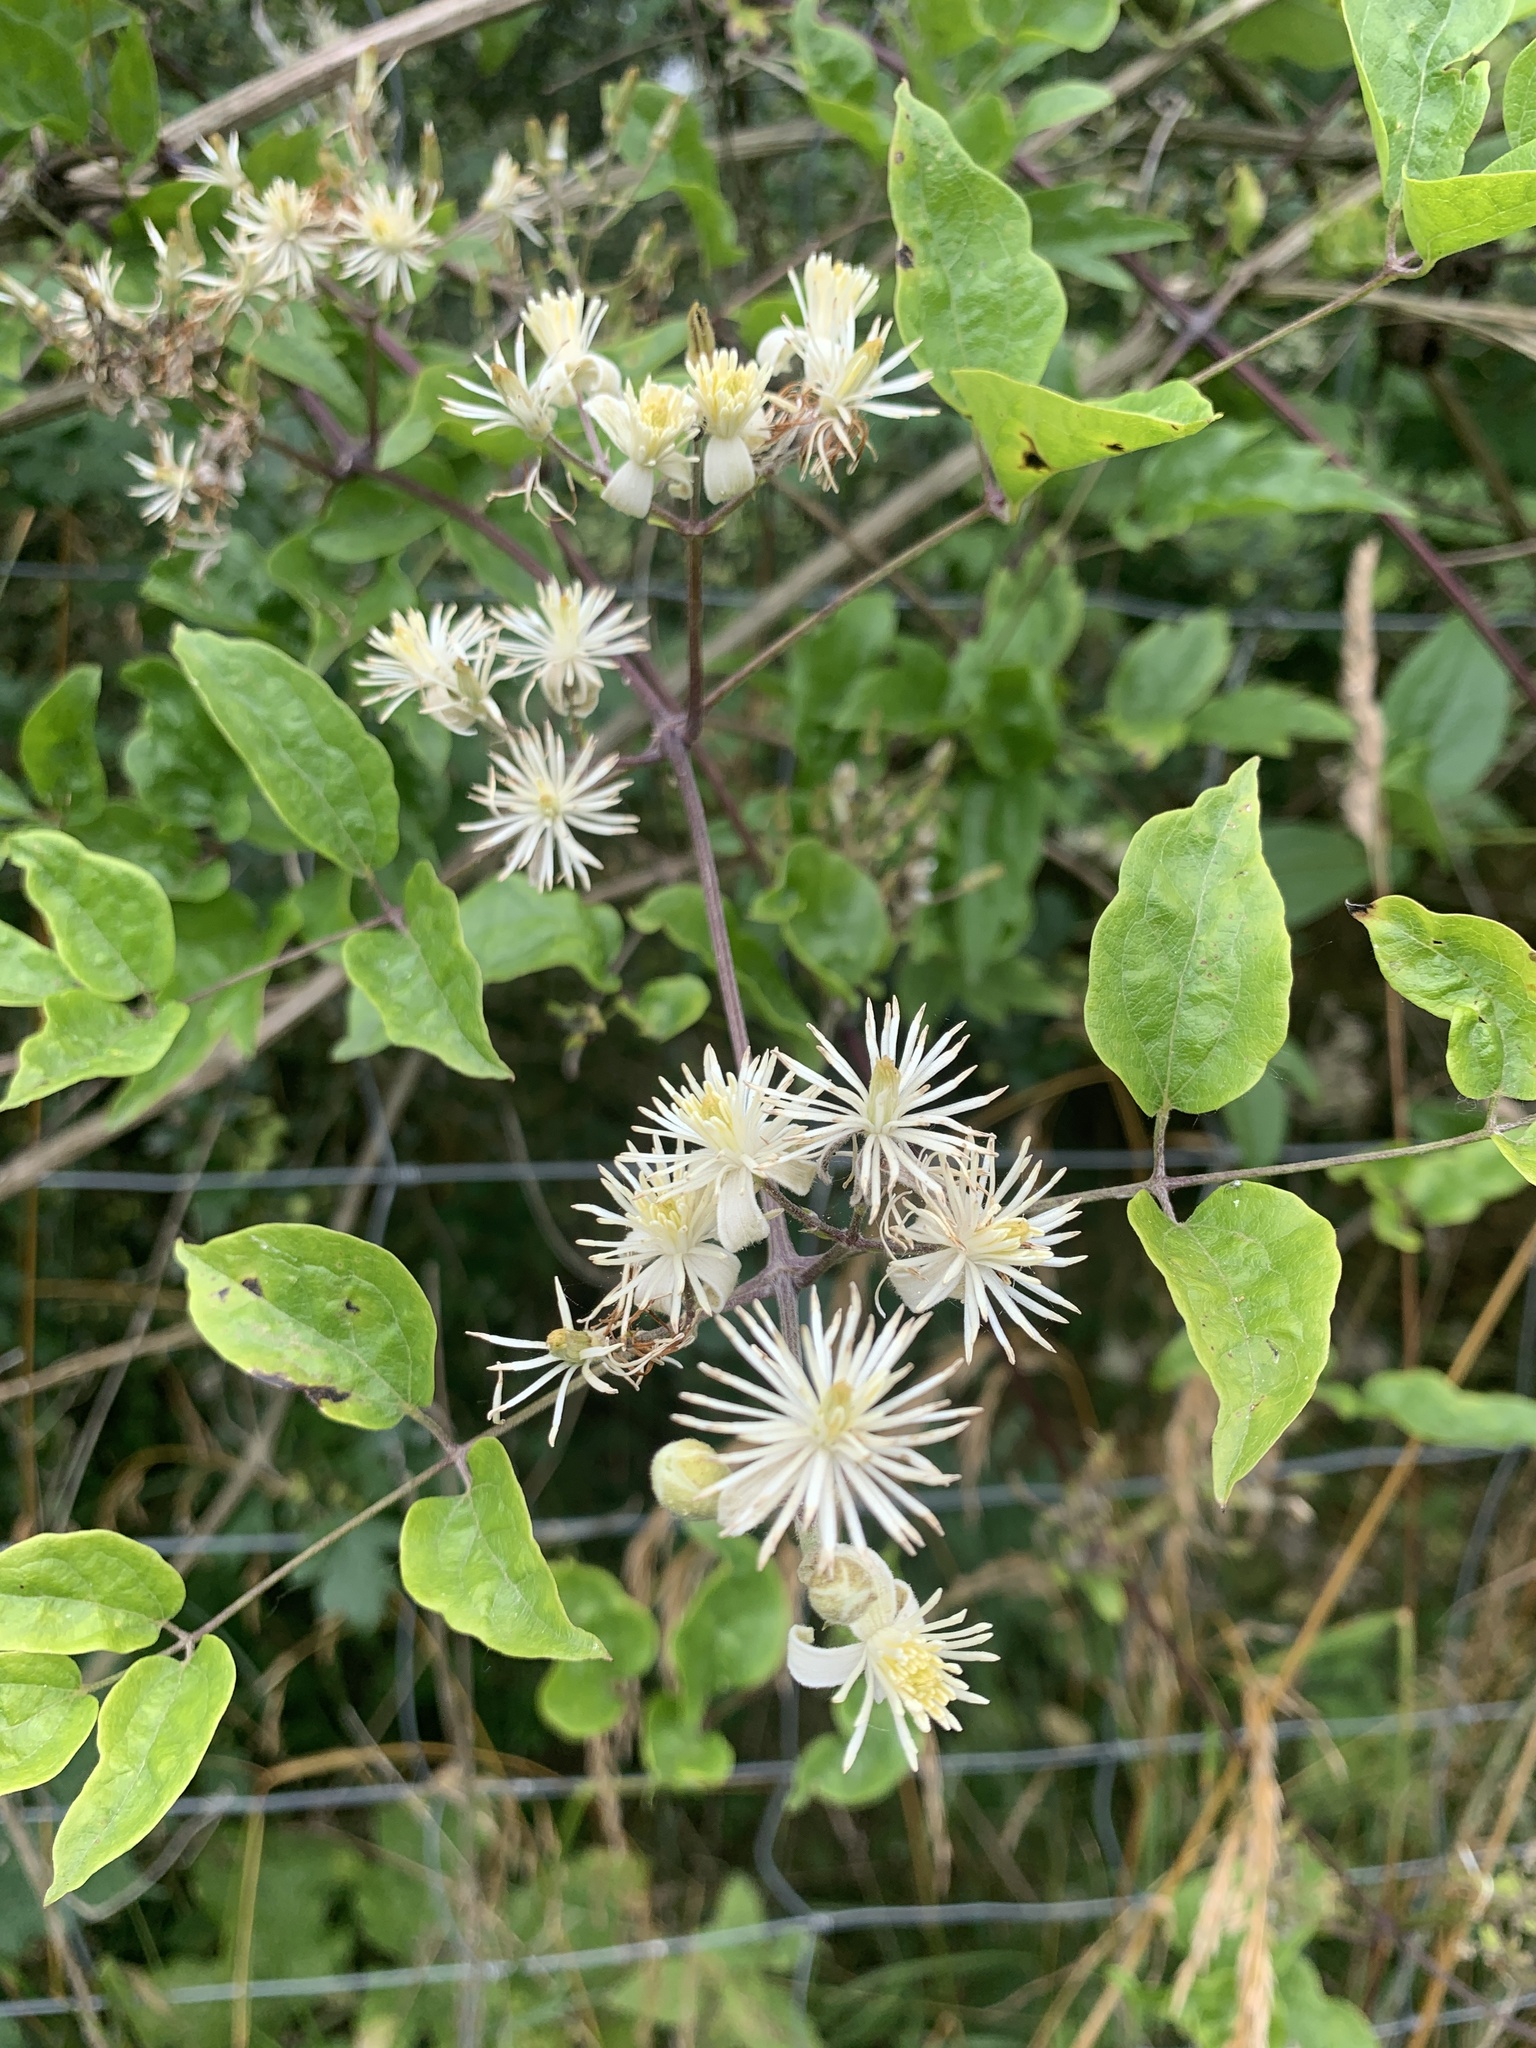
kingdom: Plantae
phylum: Tracheophyta
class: Magnoliopsida
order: Ranunculales
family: Ranunculaceae
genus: Clematis
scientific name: Clematis vitalba
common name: Evergreen clematis
